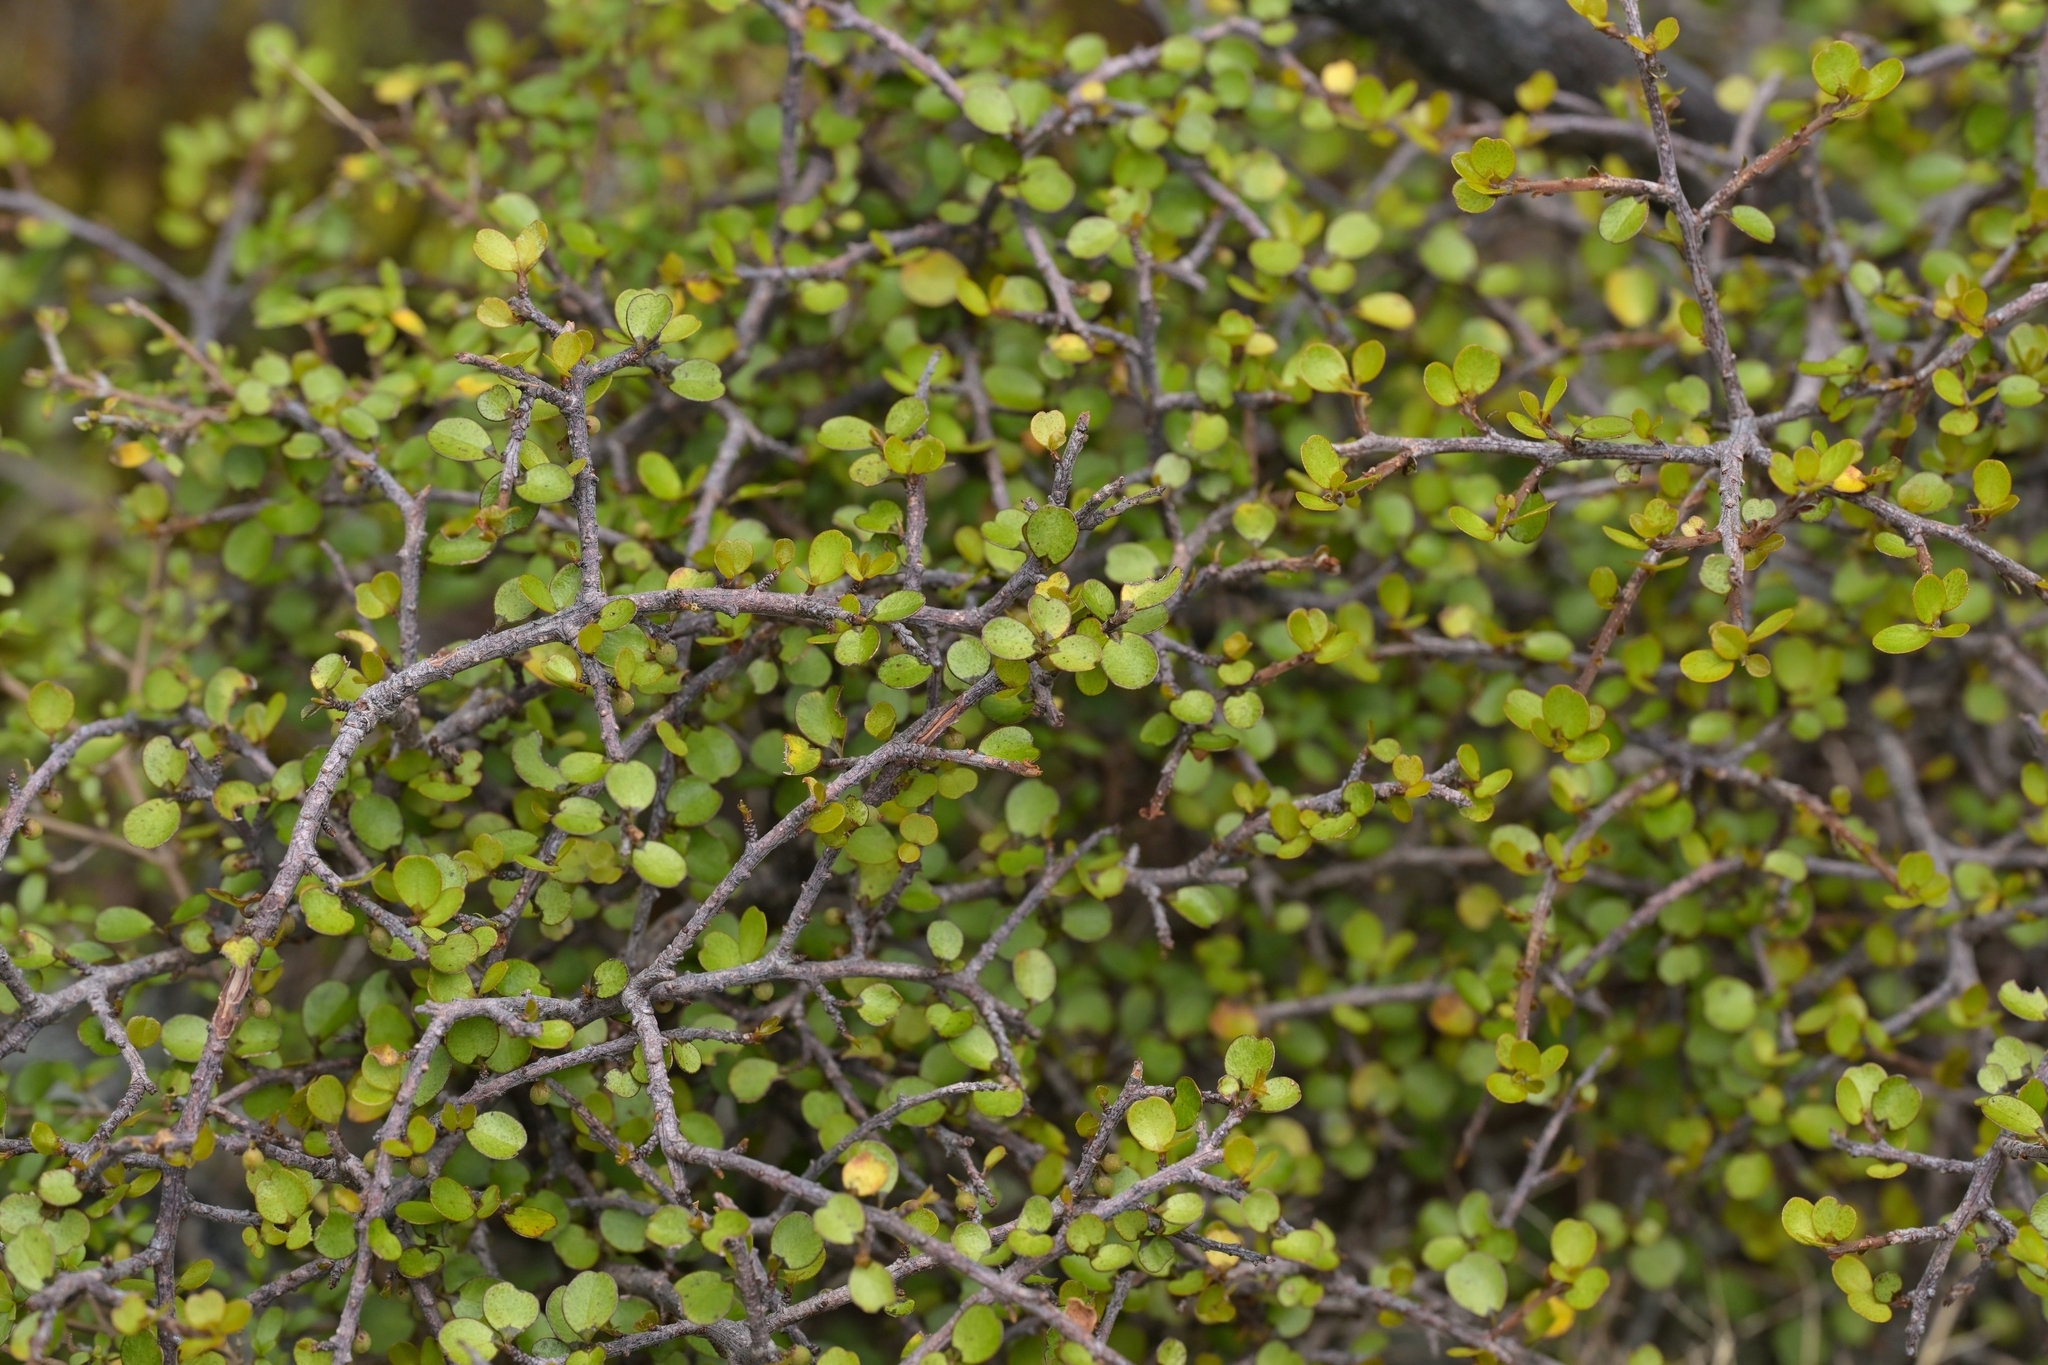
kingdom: Plantae
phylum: Tracheophyta
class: Magnoliopsida
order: Ericales
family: Primulaceae
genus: Myrsine
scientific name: Myrsine divaricata
